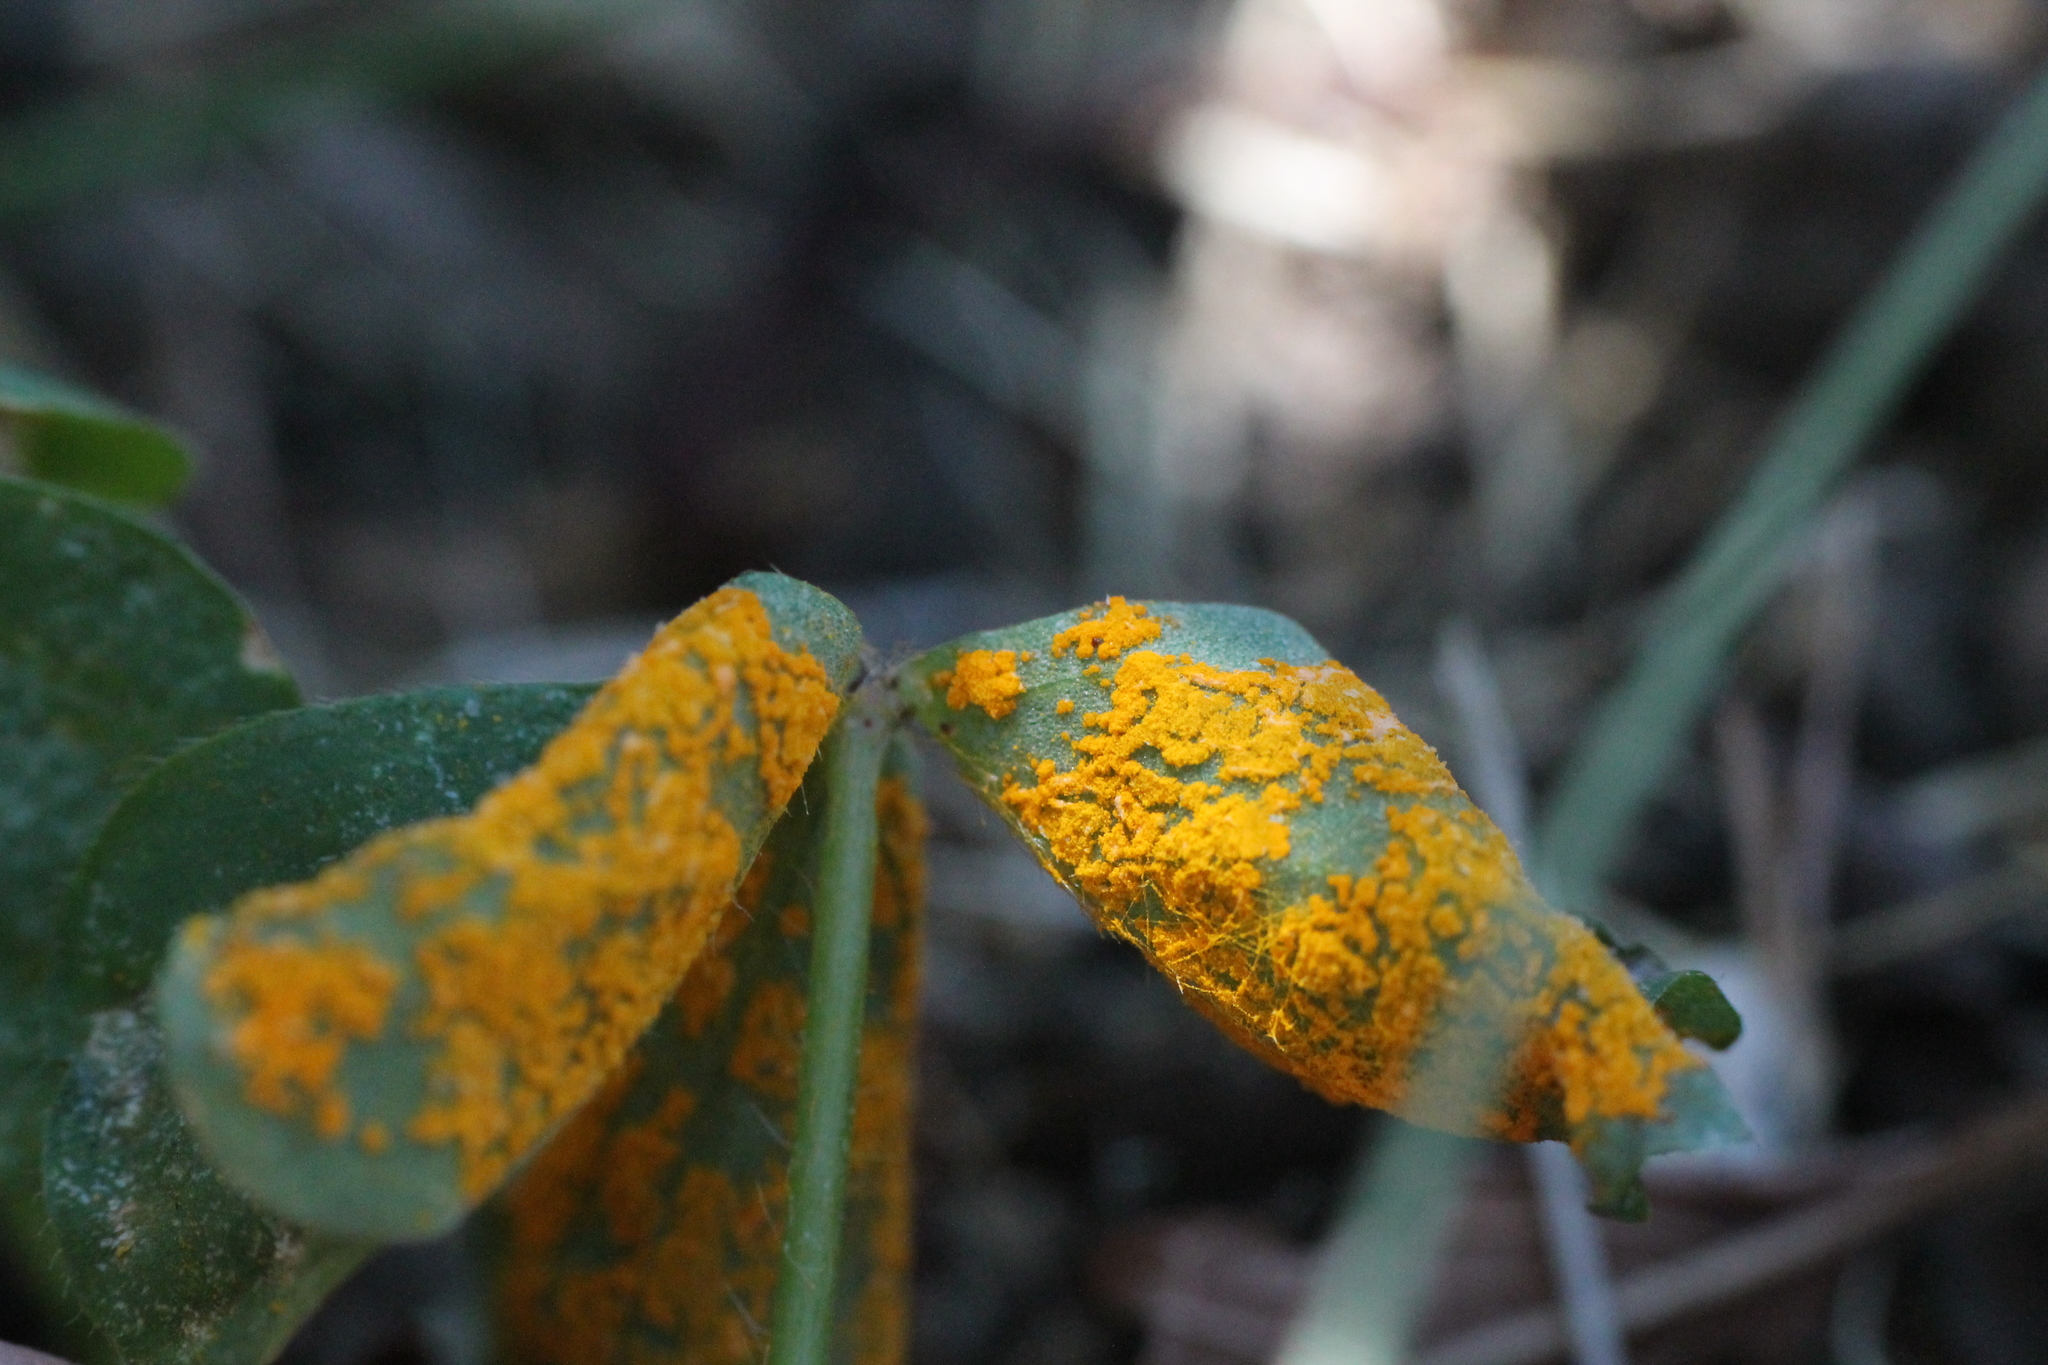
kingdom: Fungi
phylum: Basidiomycota
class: Pucciniomycetes
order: Pucciniales
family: Pucciniaceae
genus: Puccinia
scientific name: Puccinia oxalidis
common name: Oxalis rust
